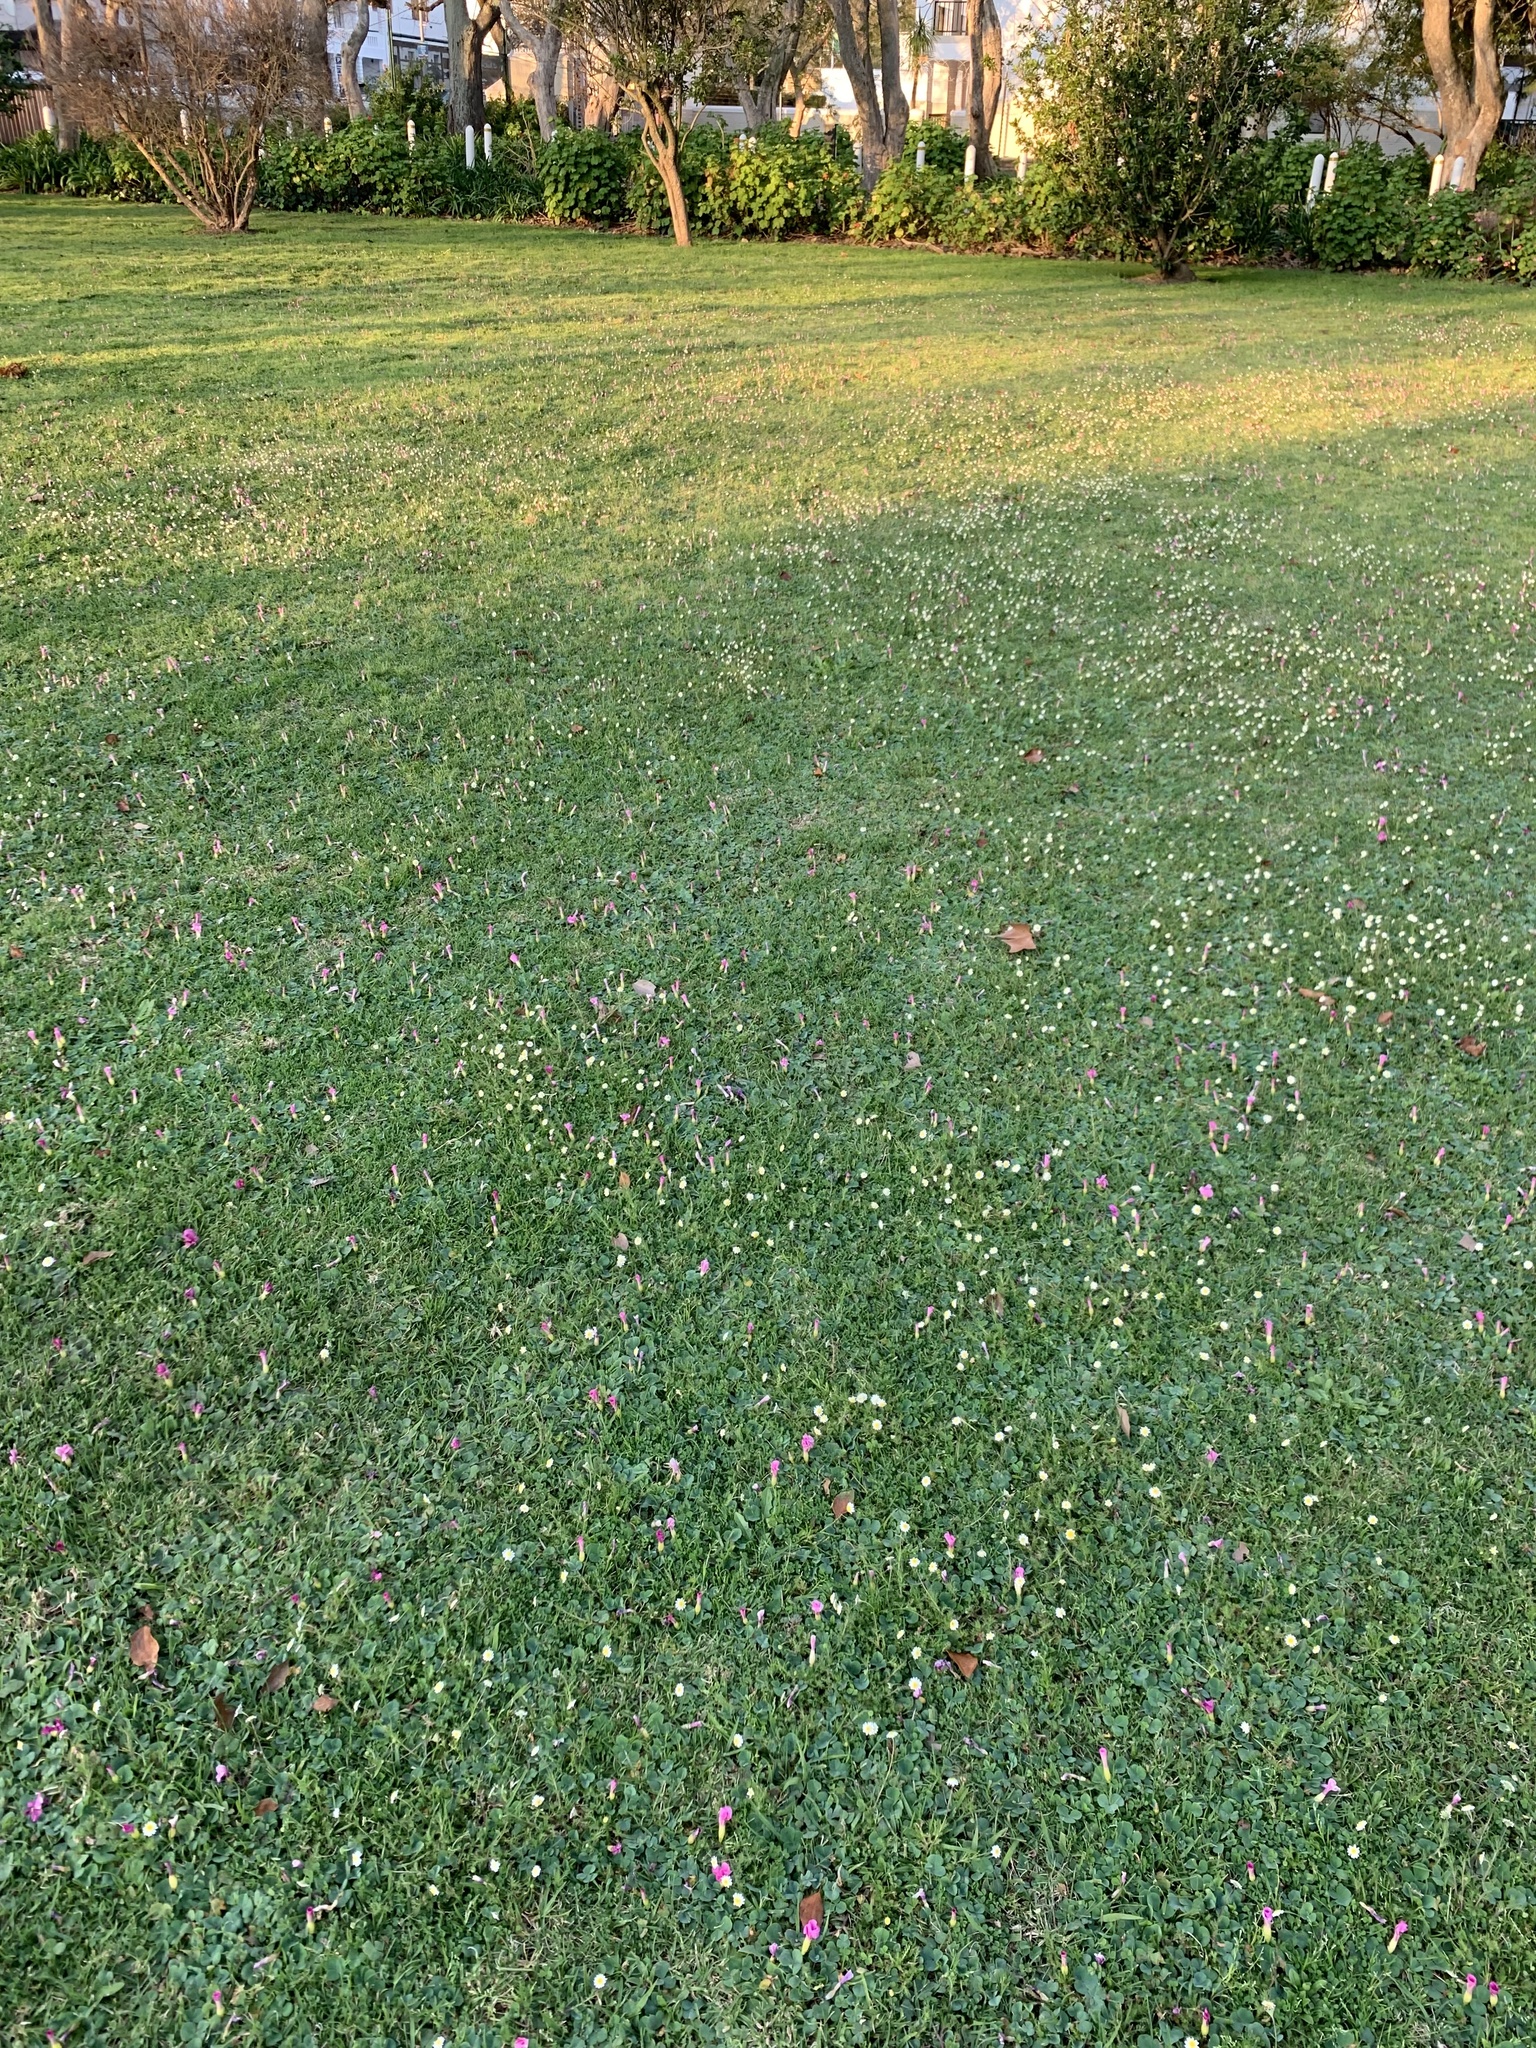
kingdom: Plantae
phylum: Tracheophyta
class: Magnoliopsida
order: Asterales
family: Asteraceae
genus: Cotula
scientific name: Cotula turbinata
